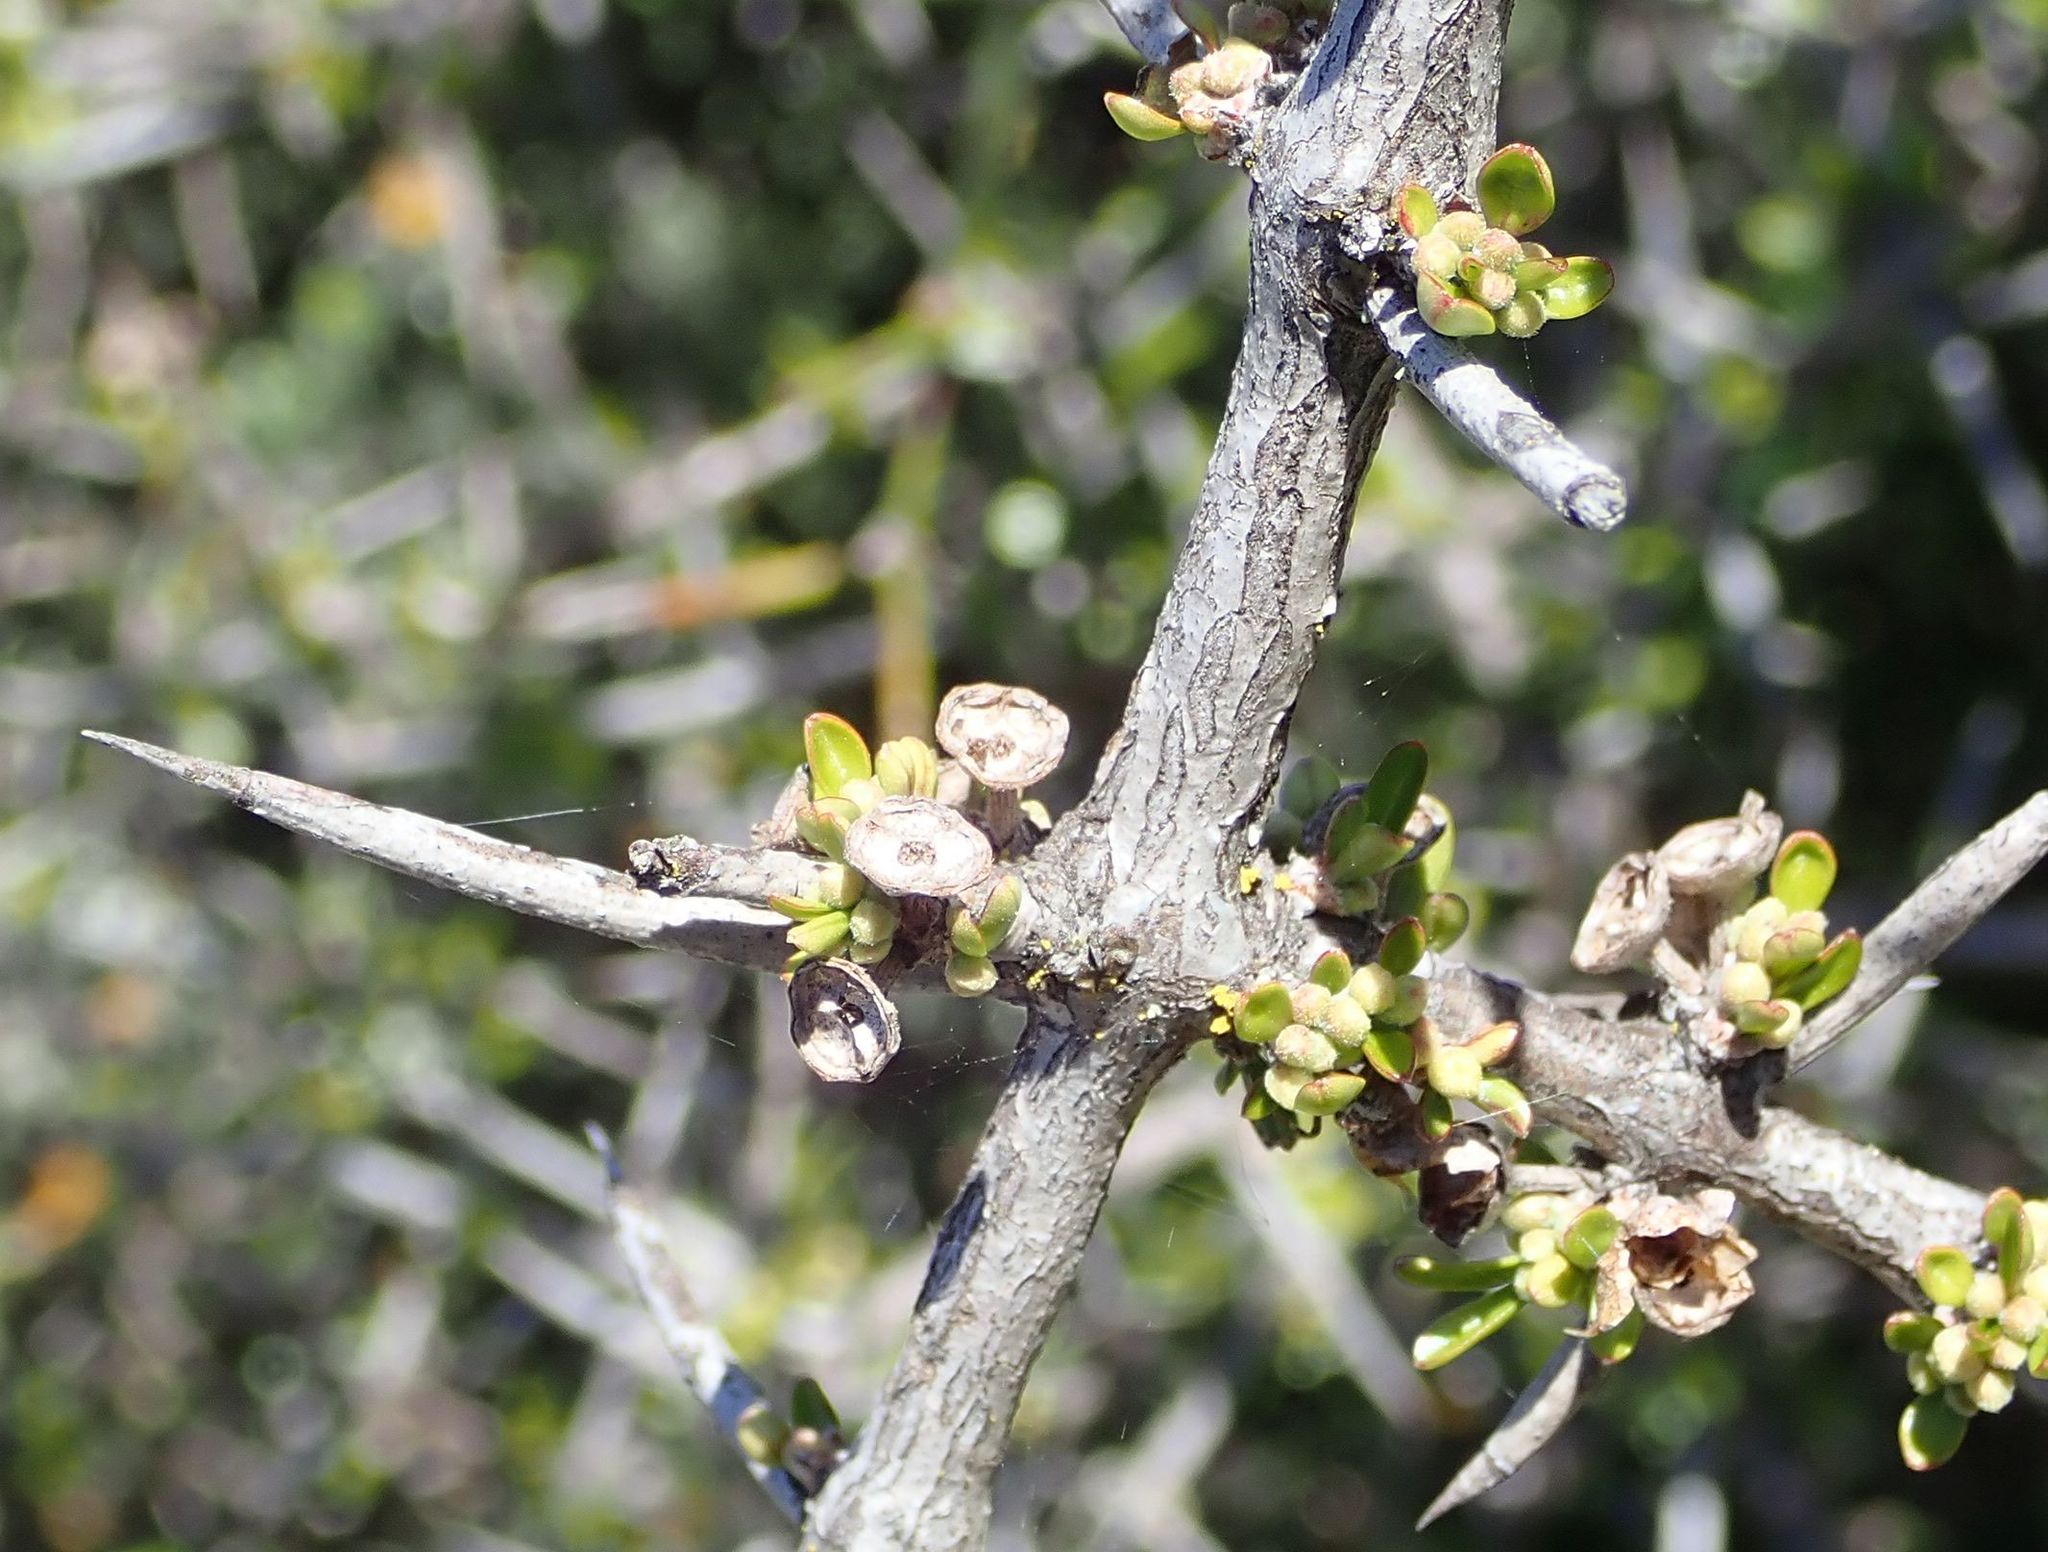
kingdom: Plantae
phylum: Tracheophyta
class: Magnoliopsida
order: Rosales
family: Rhamnaceae
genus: Discaria
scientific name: Discaria toumatou
